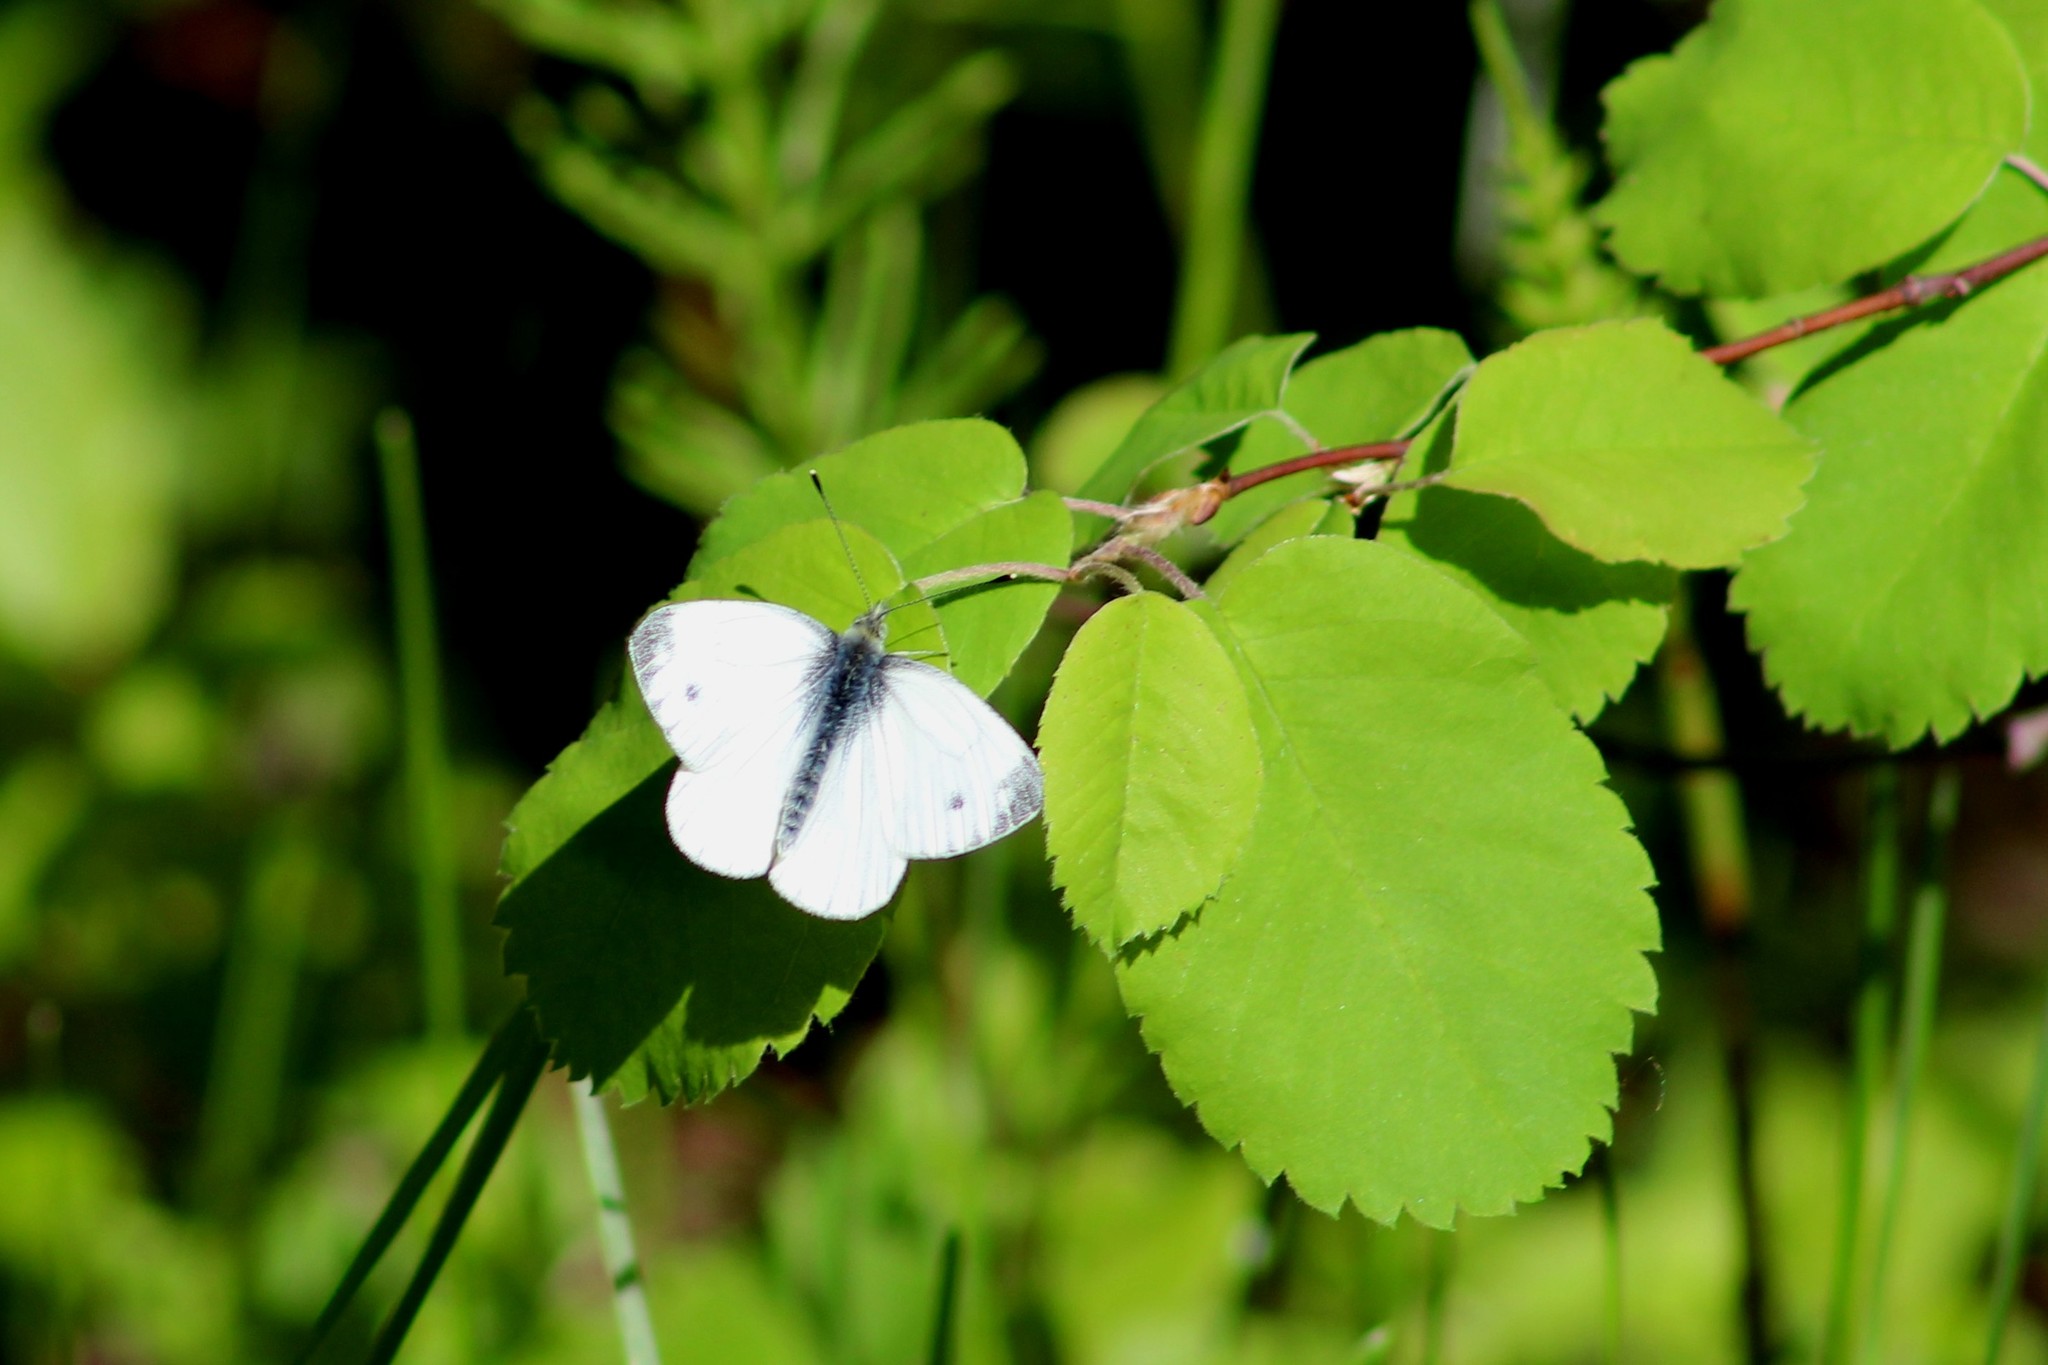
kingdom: Animalia
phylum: Arthropoda
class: Insecta
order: Lepidoptera
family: Pieridae
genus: Pieris
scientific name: Pieris napi
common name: Green-veined white
